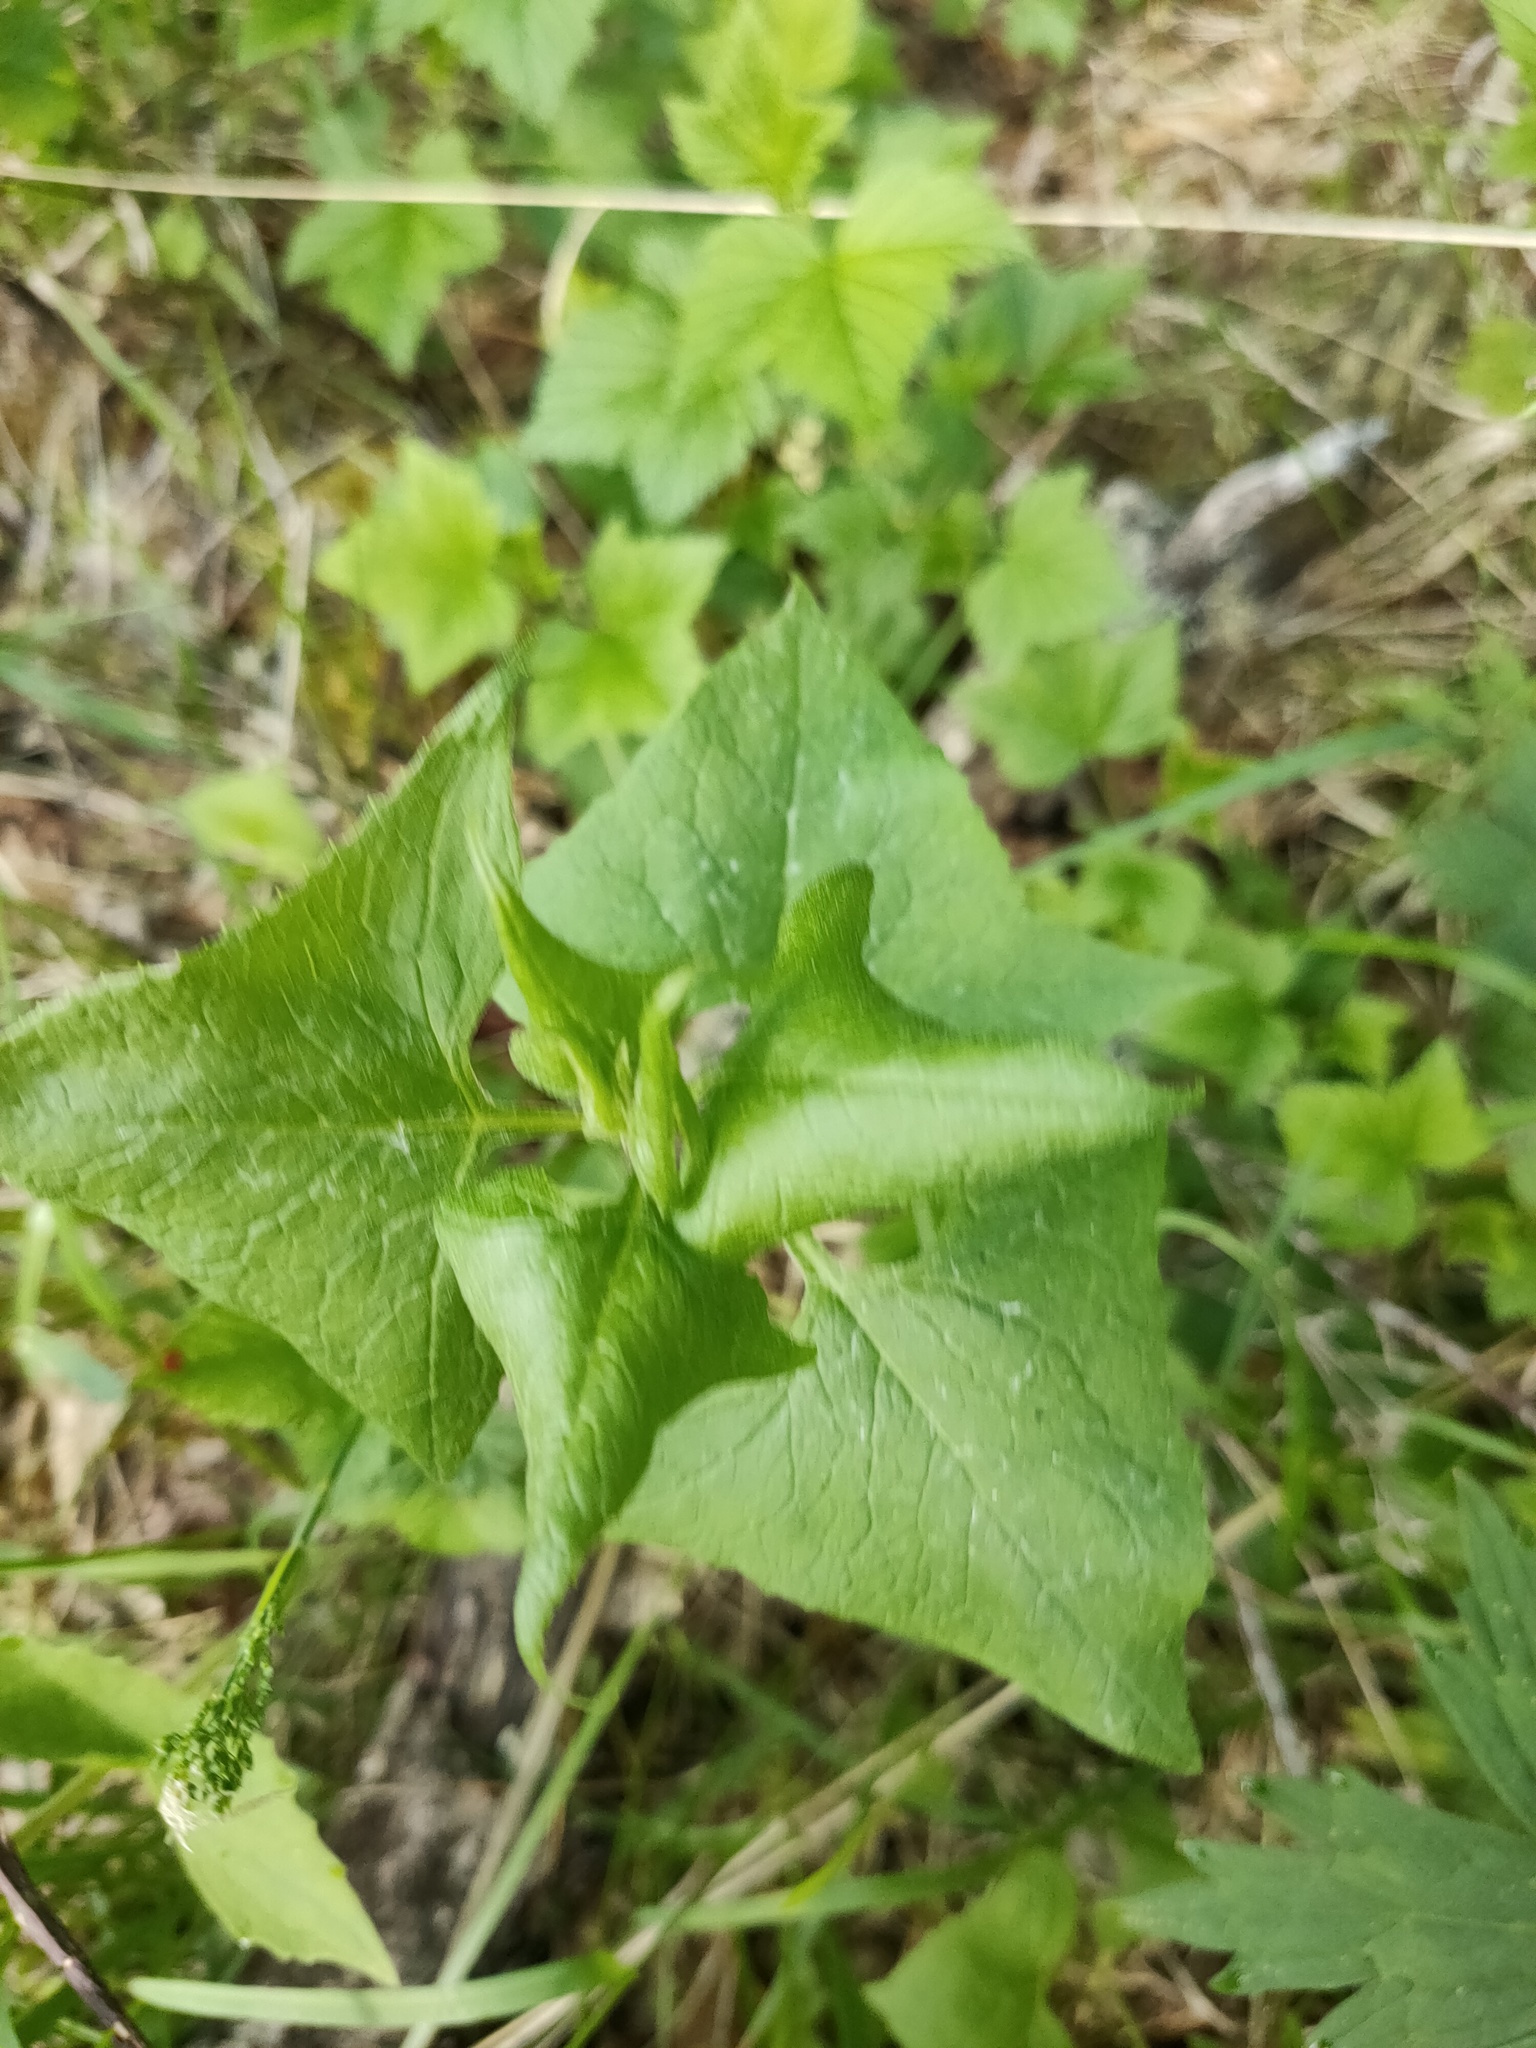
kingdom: Plantae
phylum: Tracheophyta
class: Magnoliopsida
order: Asterales
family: Asteraceae
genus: Parasenecio
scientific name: Parasenecio hastatus
